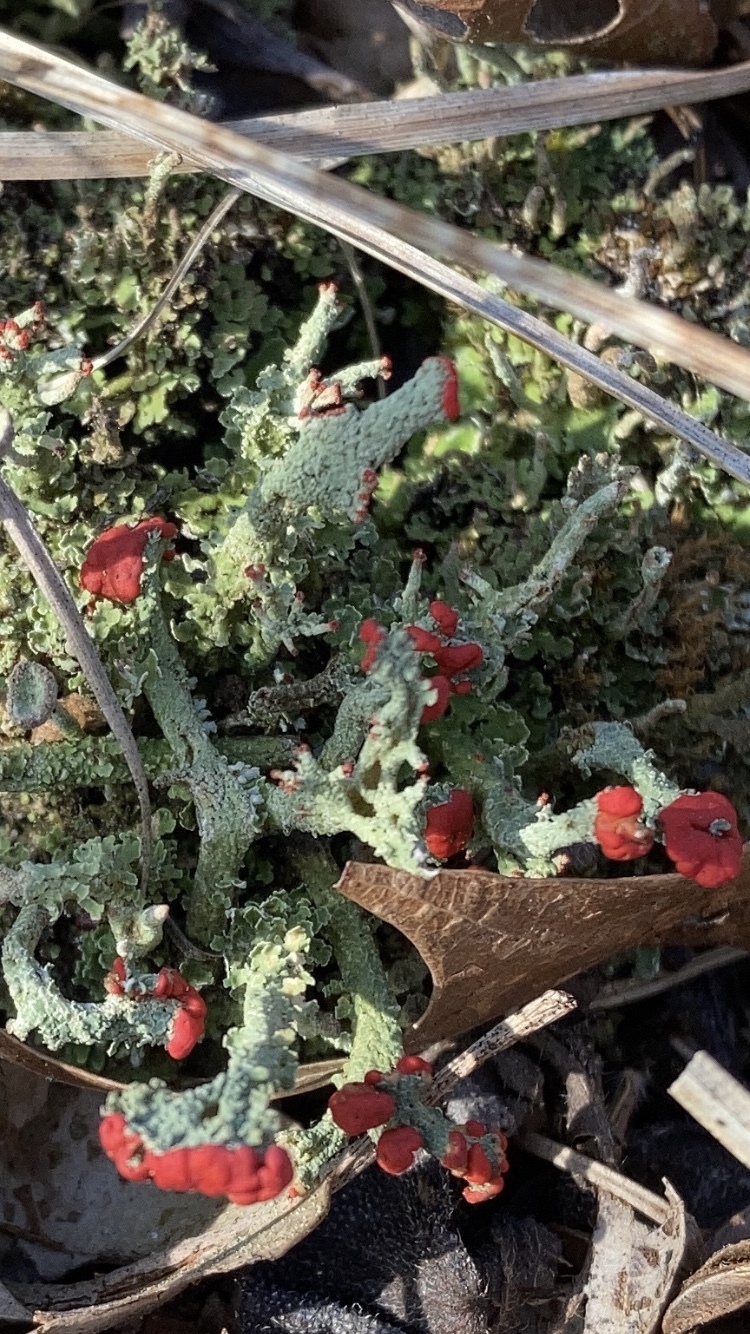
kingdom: Fungi
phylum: Ascomycota
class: Lecanoromycetes
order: Lecanorales
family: Cladoniaceae
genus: Cladonia
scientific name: Cladonia cristatella
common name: British soldier lichen
